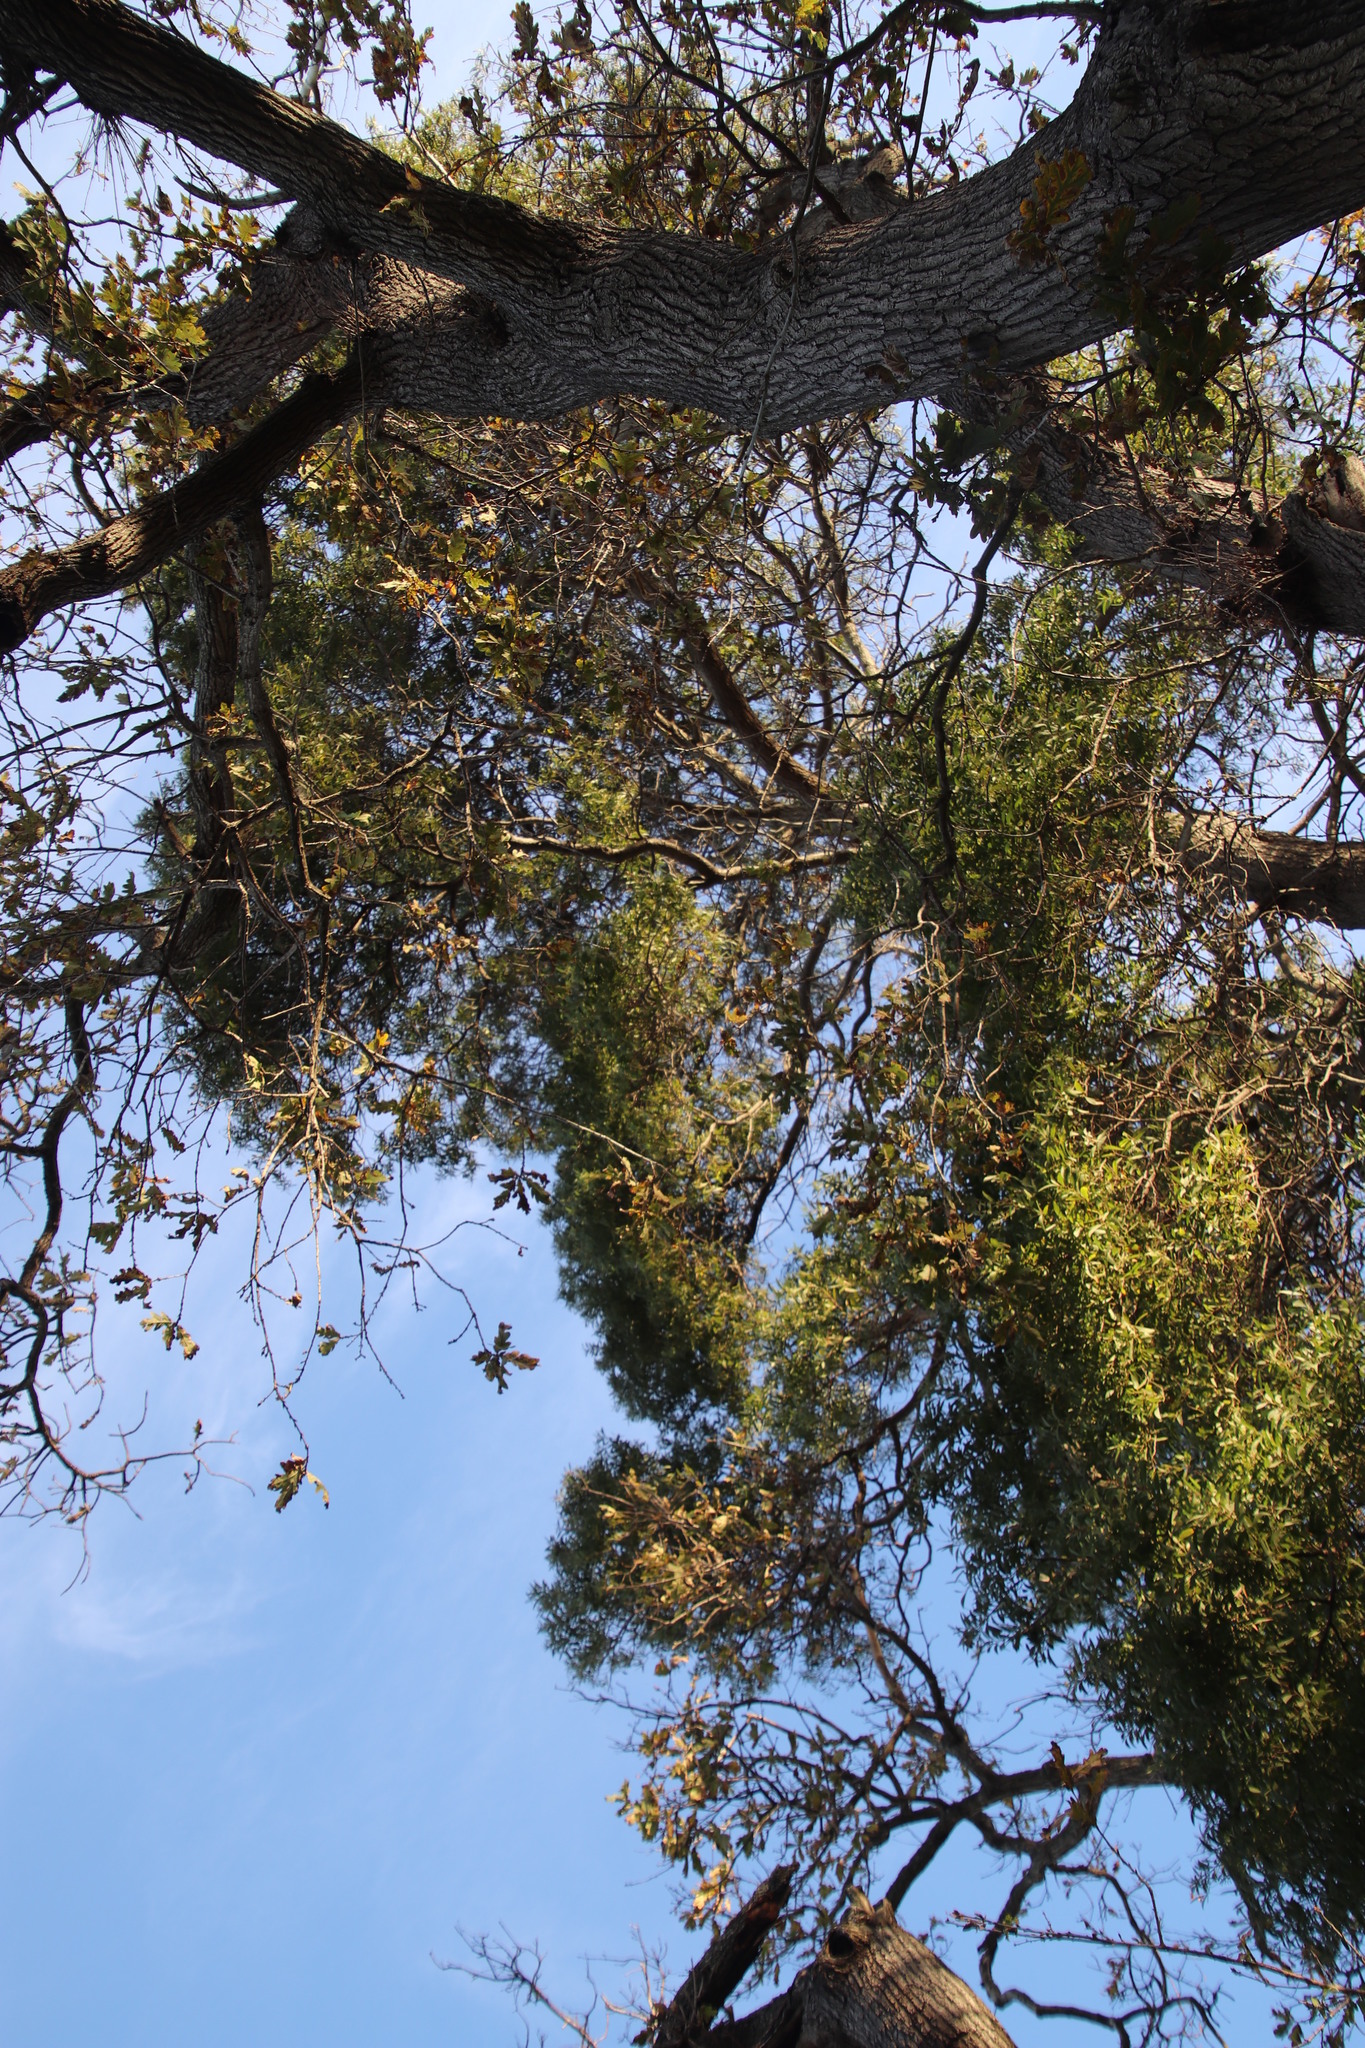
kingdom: Plantae
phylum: Tracheophyta
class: Magnoliopsida
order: Fabales
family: Fabaceae
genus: Acacia
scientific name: Acacia melanoxylon
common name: Blackwood
